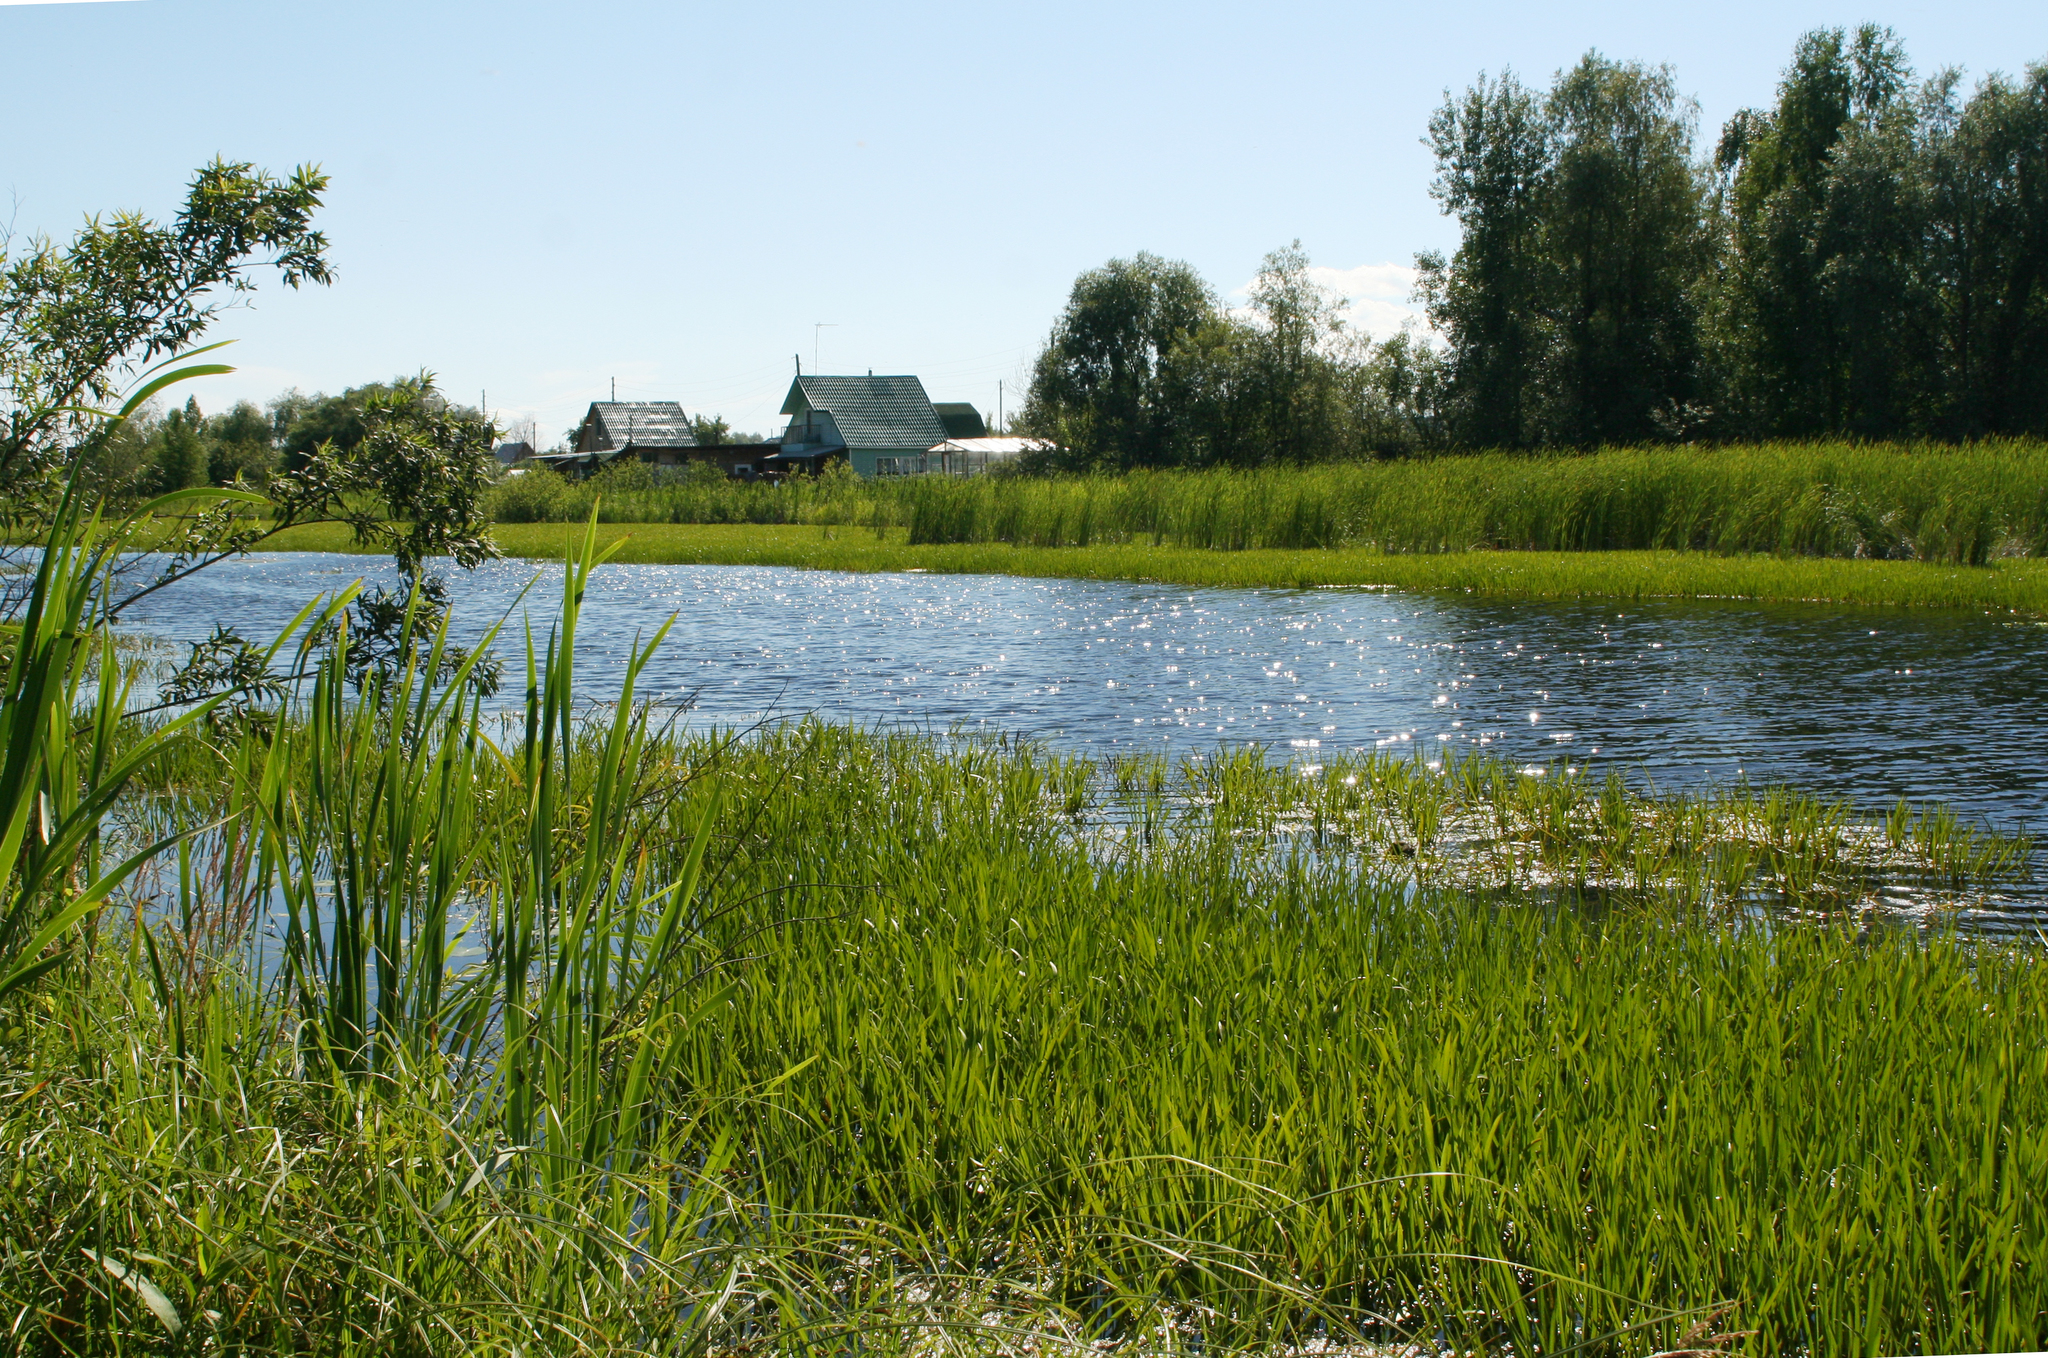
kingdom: Plantae
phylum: Tracheophyta
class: Liliopsida
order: Alismatales
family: Hydrocharitaceae
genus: Stratiotes
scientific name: Stratiotes aloides
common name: Water-soldier
